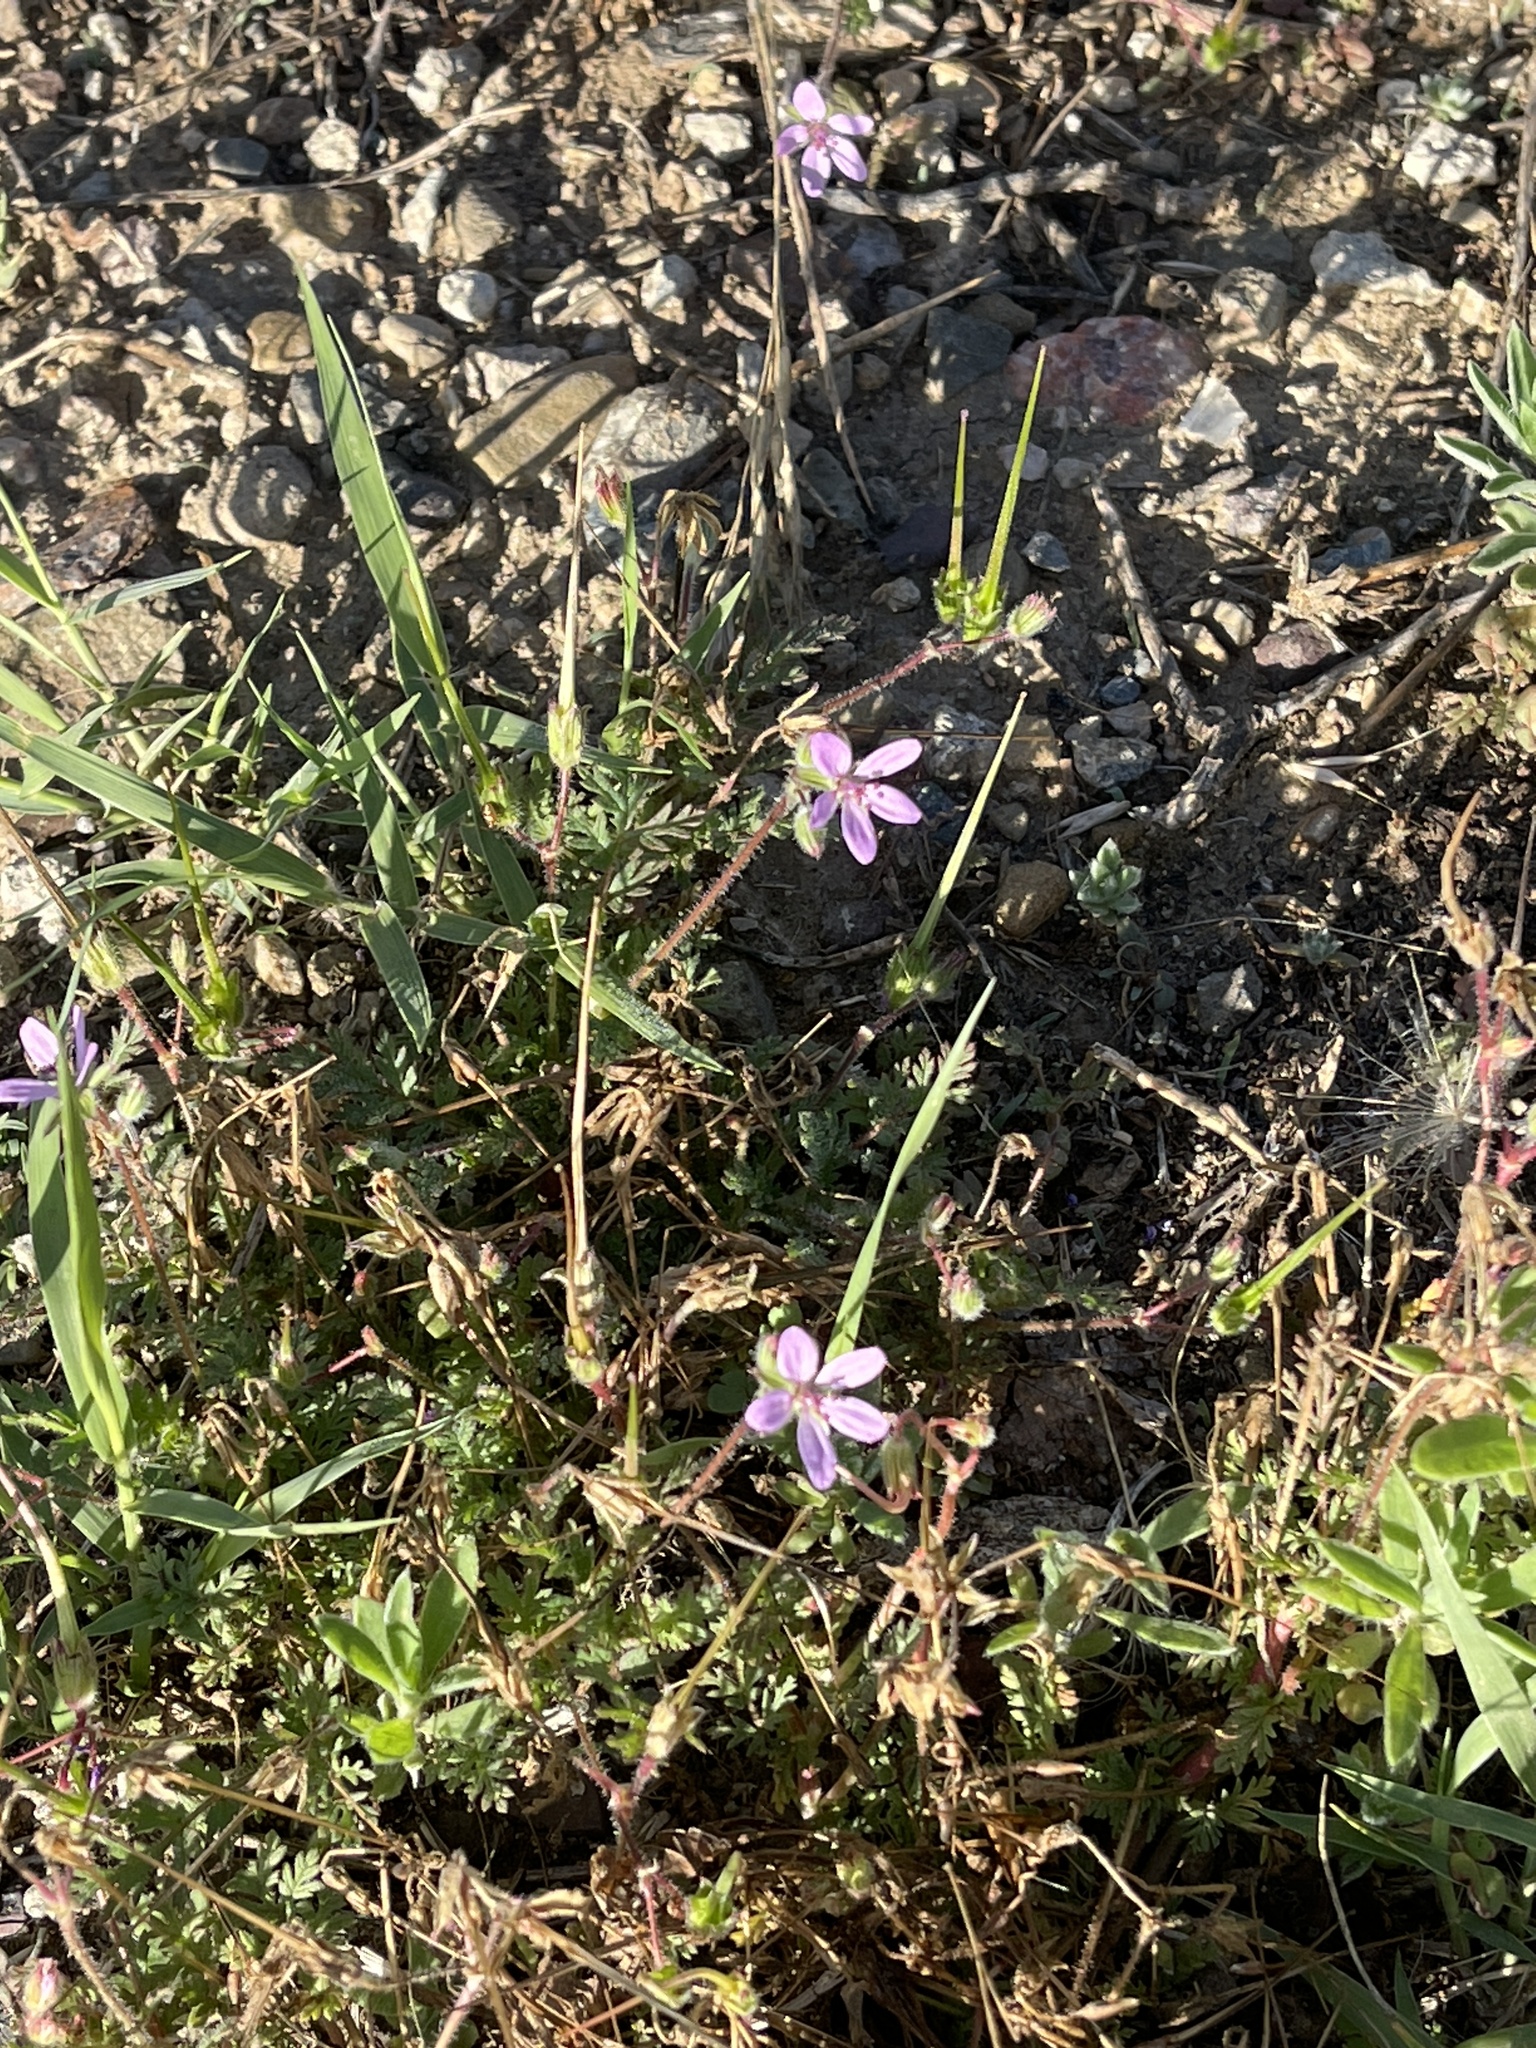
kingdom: Plantae
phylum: Tracheophyta
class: Magnoliopsida
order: Geraniales
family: Geraniaceae
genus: Erodium
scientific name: Erodium cicutarium
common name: Common stork's-bill
